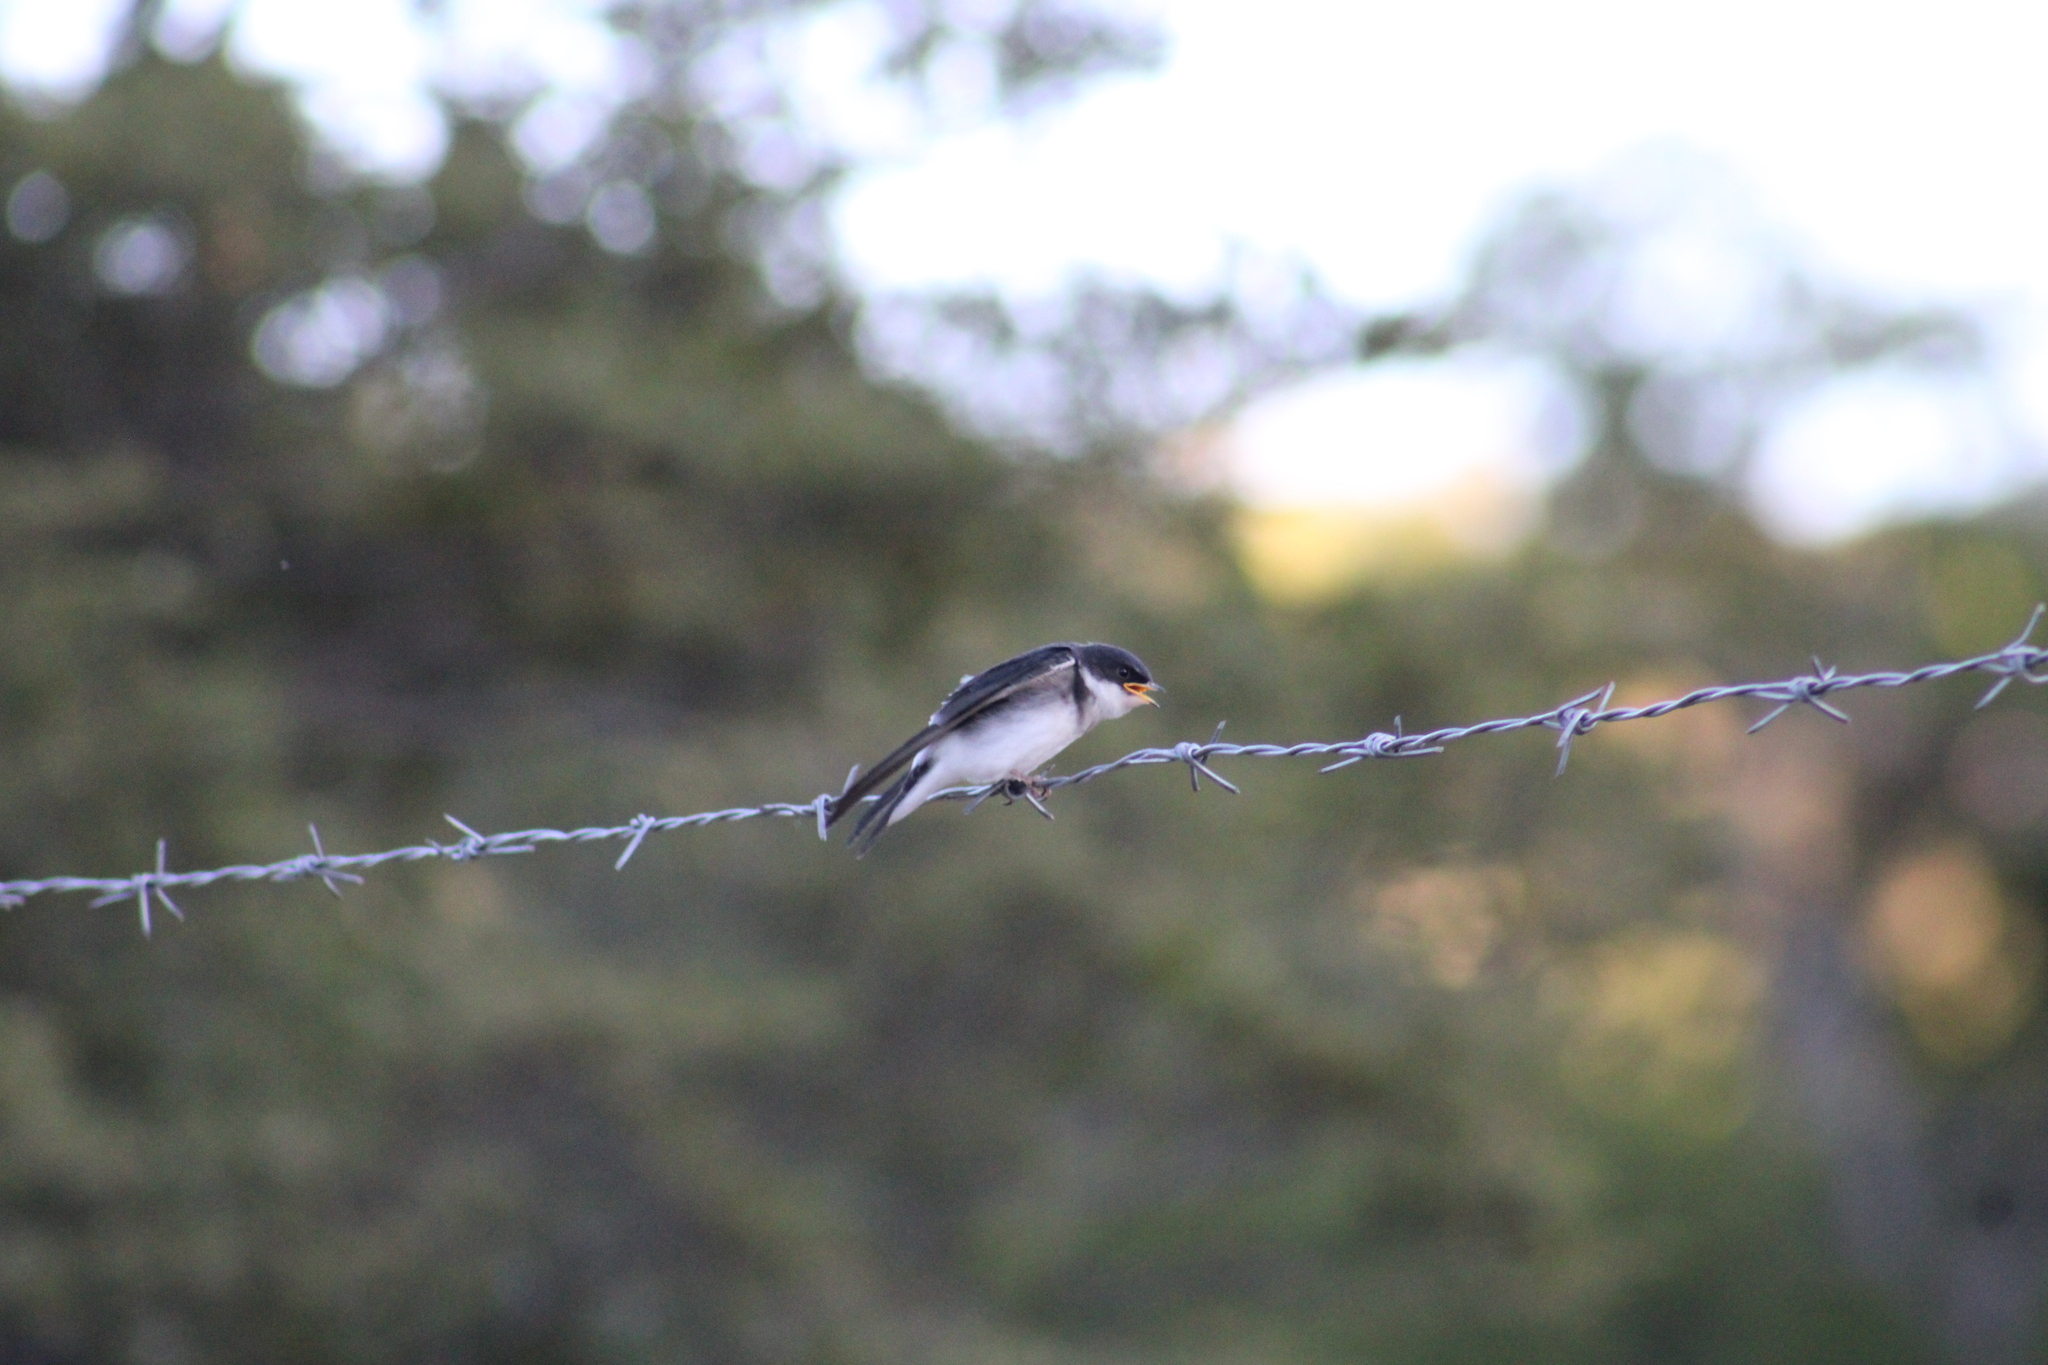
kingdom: Animalia
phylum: Chordata
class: Aves
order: Passeriformes
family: Hirundinidae
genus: Tachycineta
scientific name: Tachycineta leucopyga
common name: Chilean swallow
